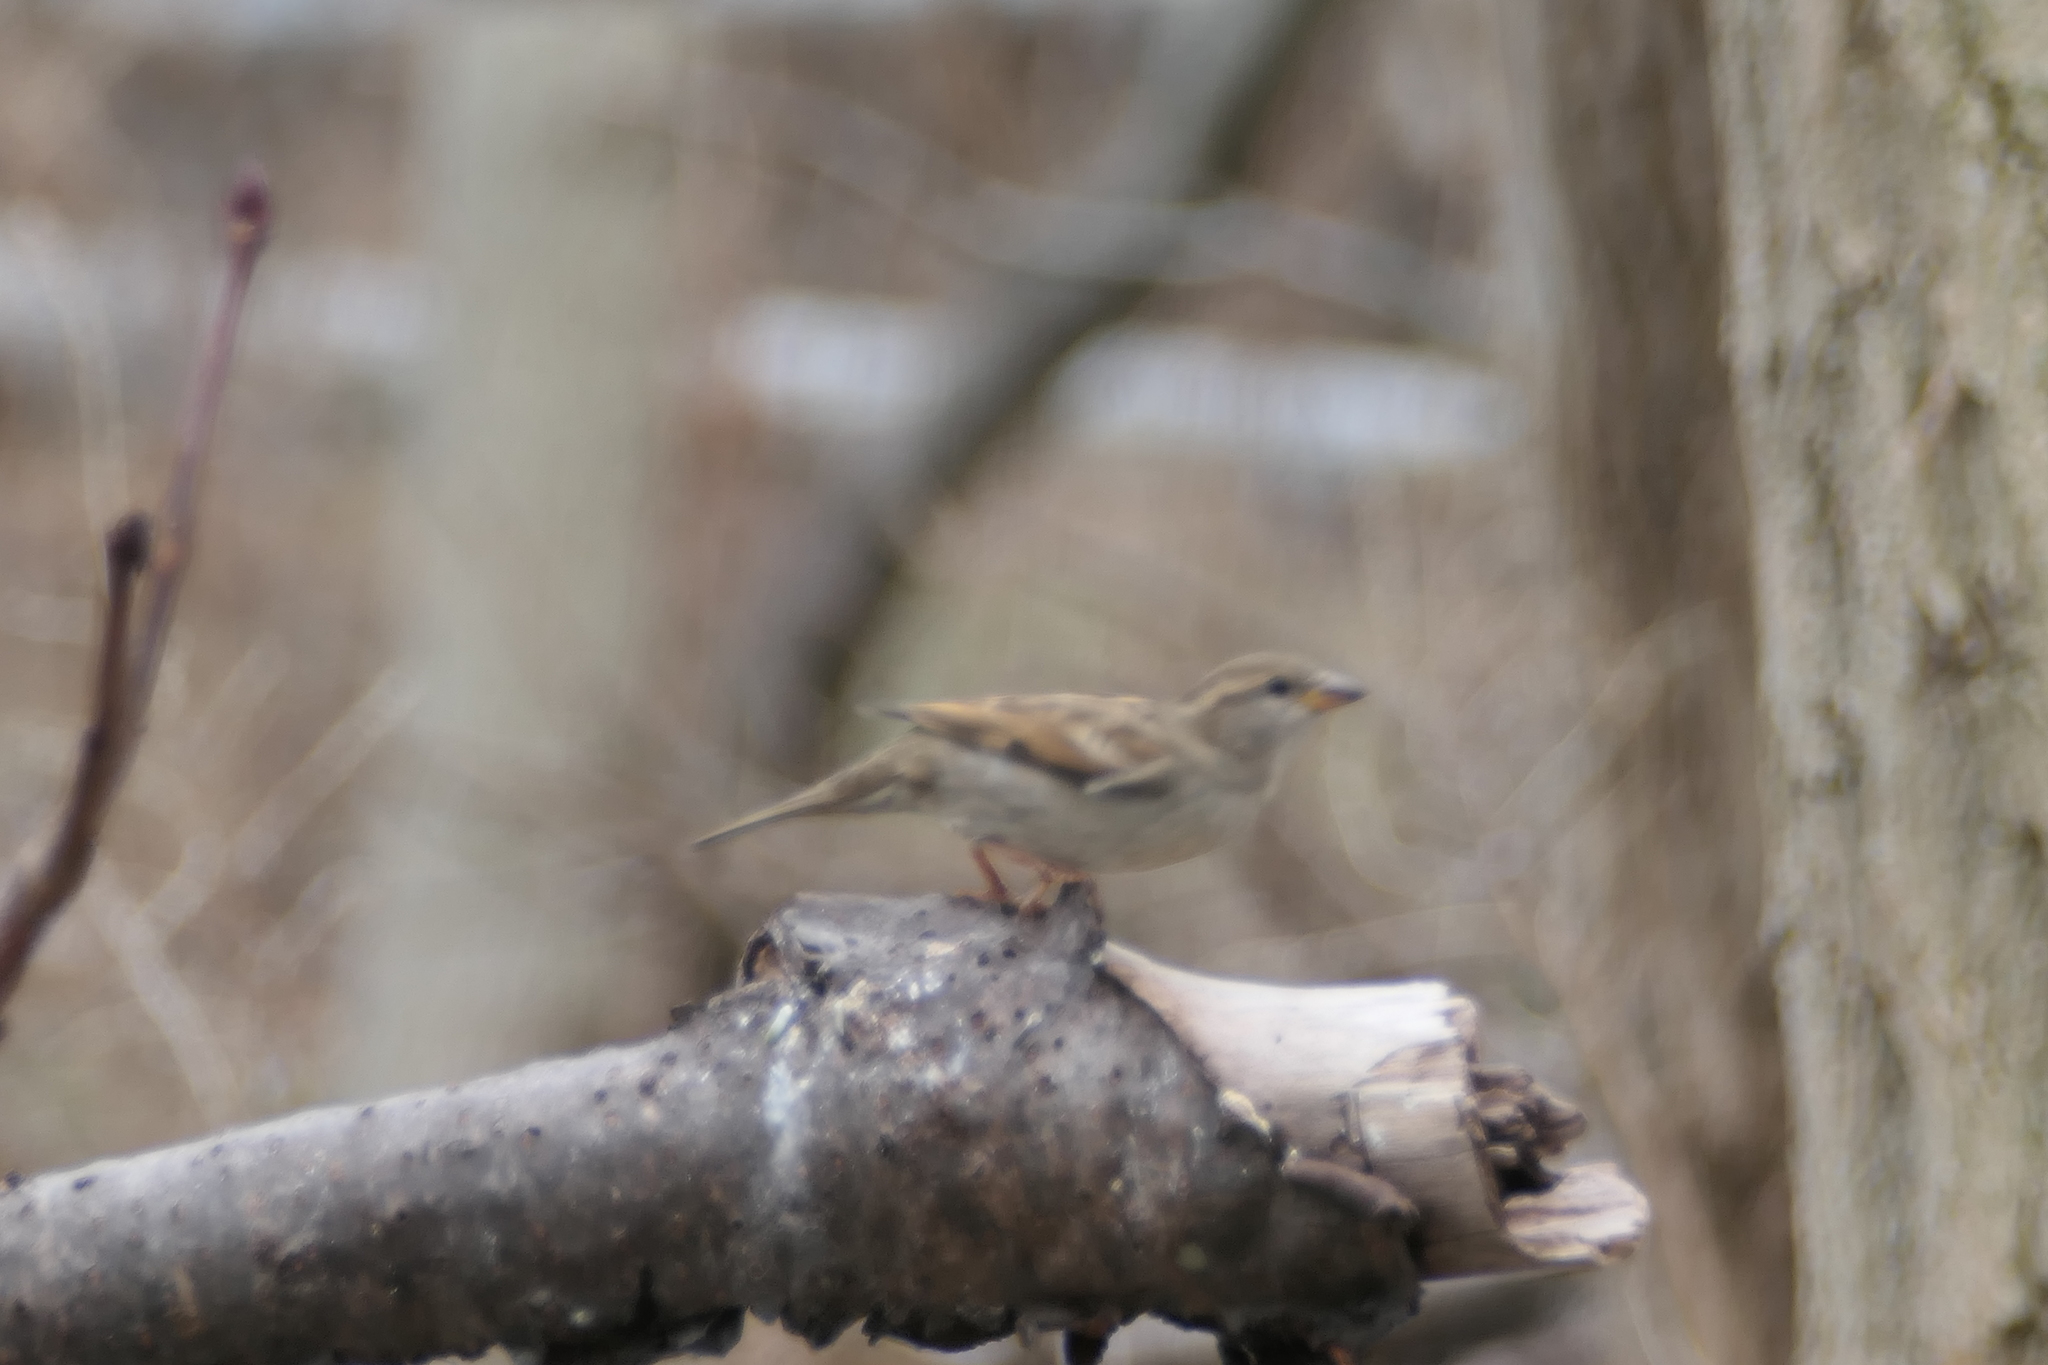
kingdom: Animalia
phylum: Chordata
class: Aves
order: Passeriformes
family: Passeridae
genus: Passer
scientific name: Passer domesticus
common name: House sparrow
